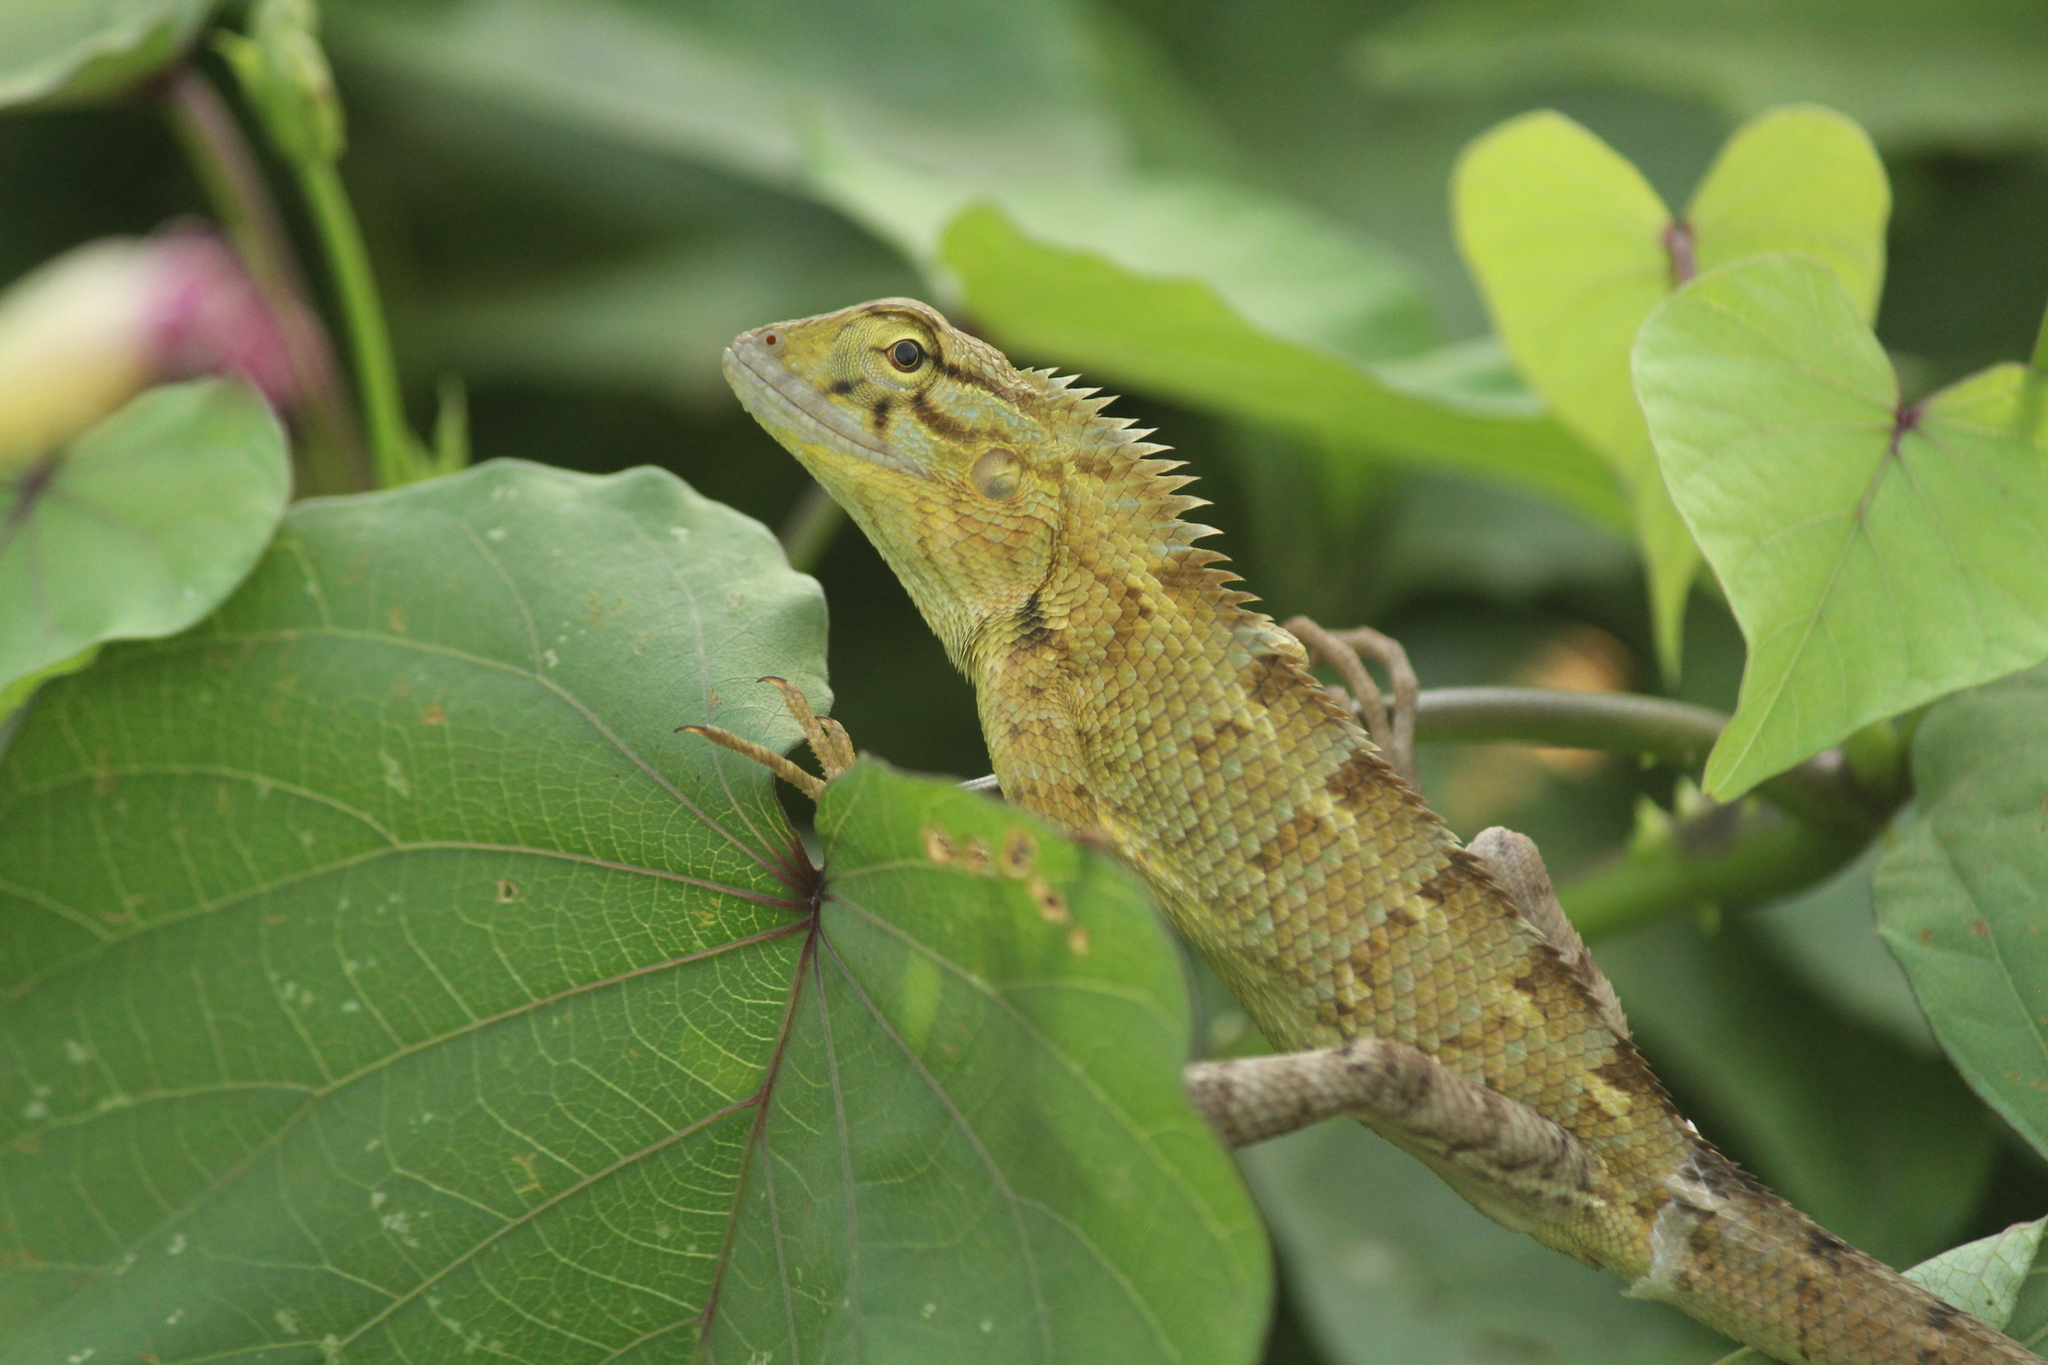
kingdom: Animalia
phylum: Chordata
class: Squamata
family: Agamidae
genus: Calotes
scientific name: Calotes versicolor
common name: Oriental garden lizard
